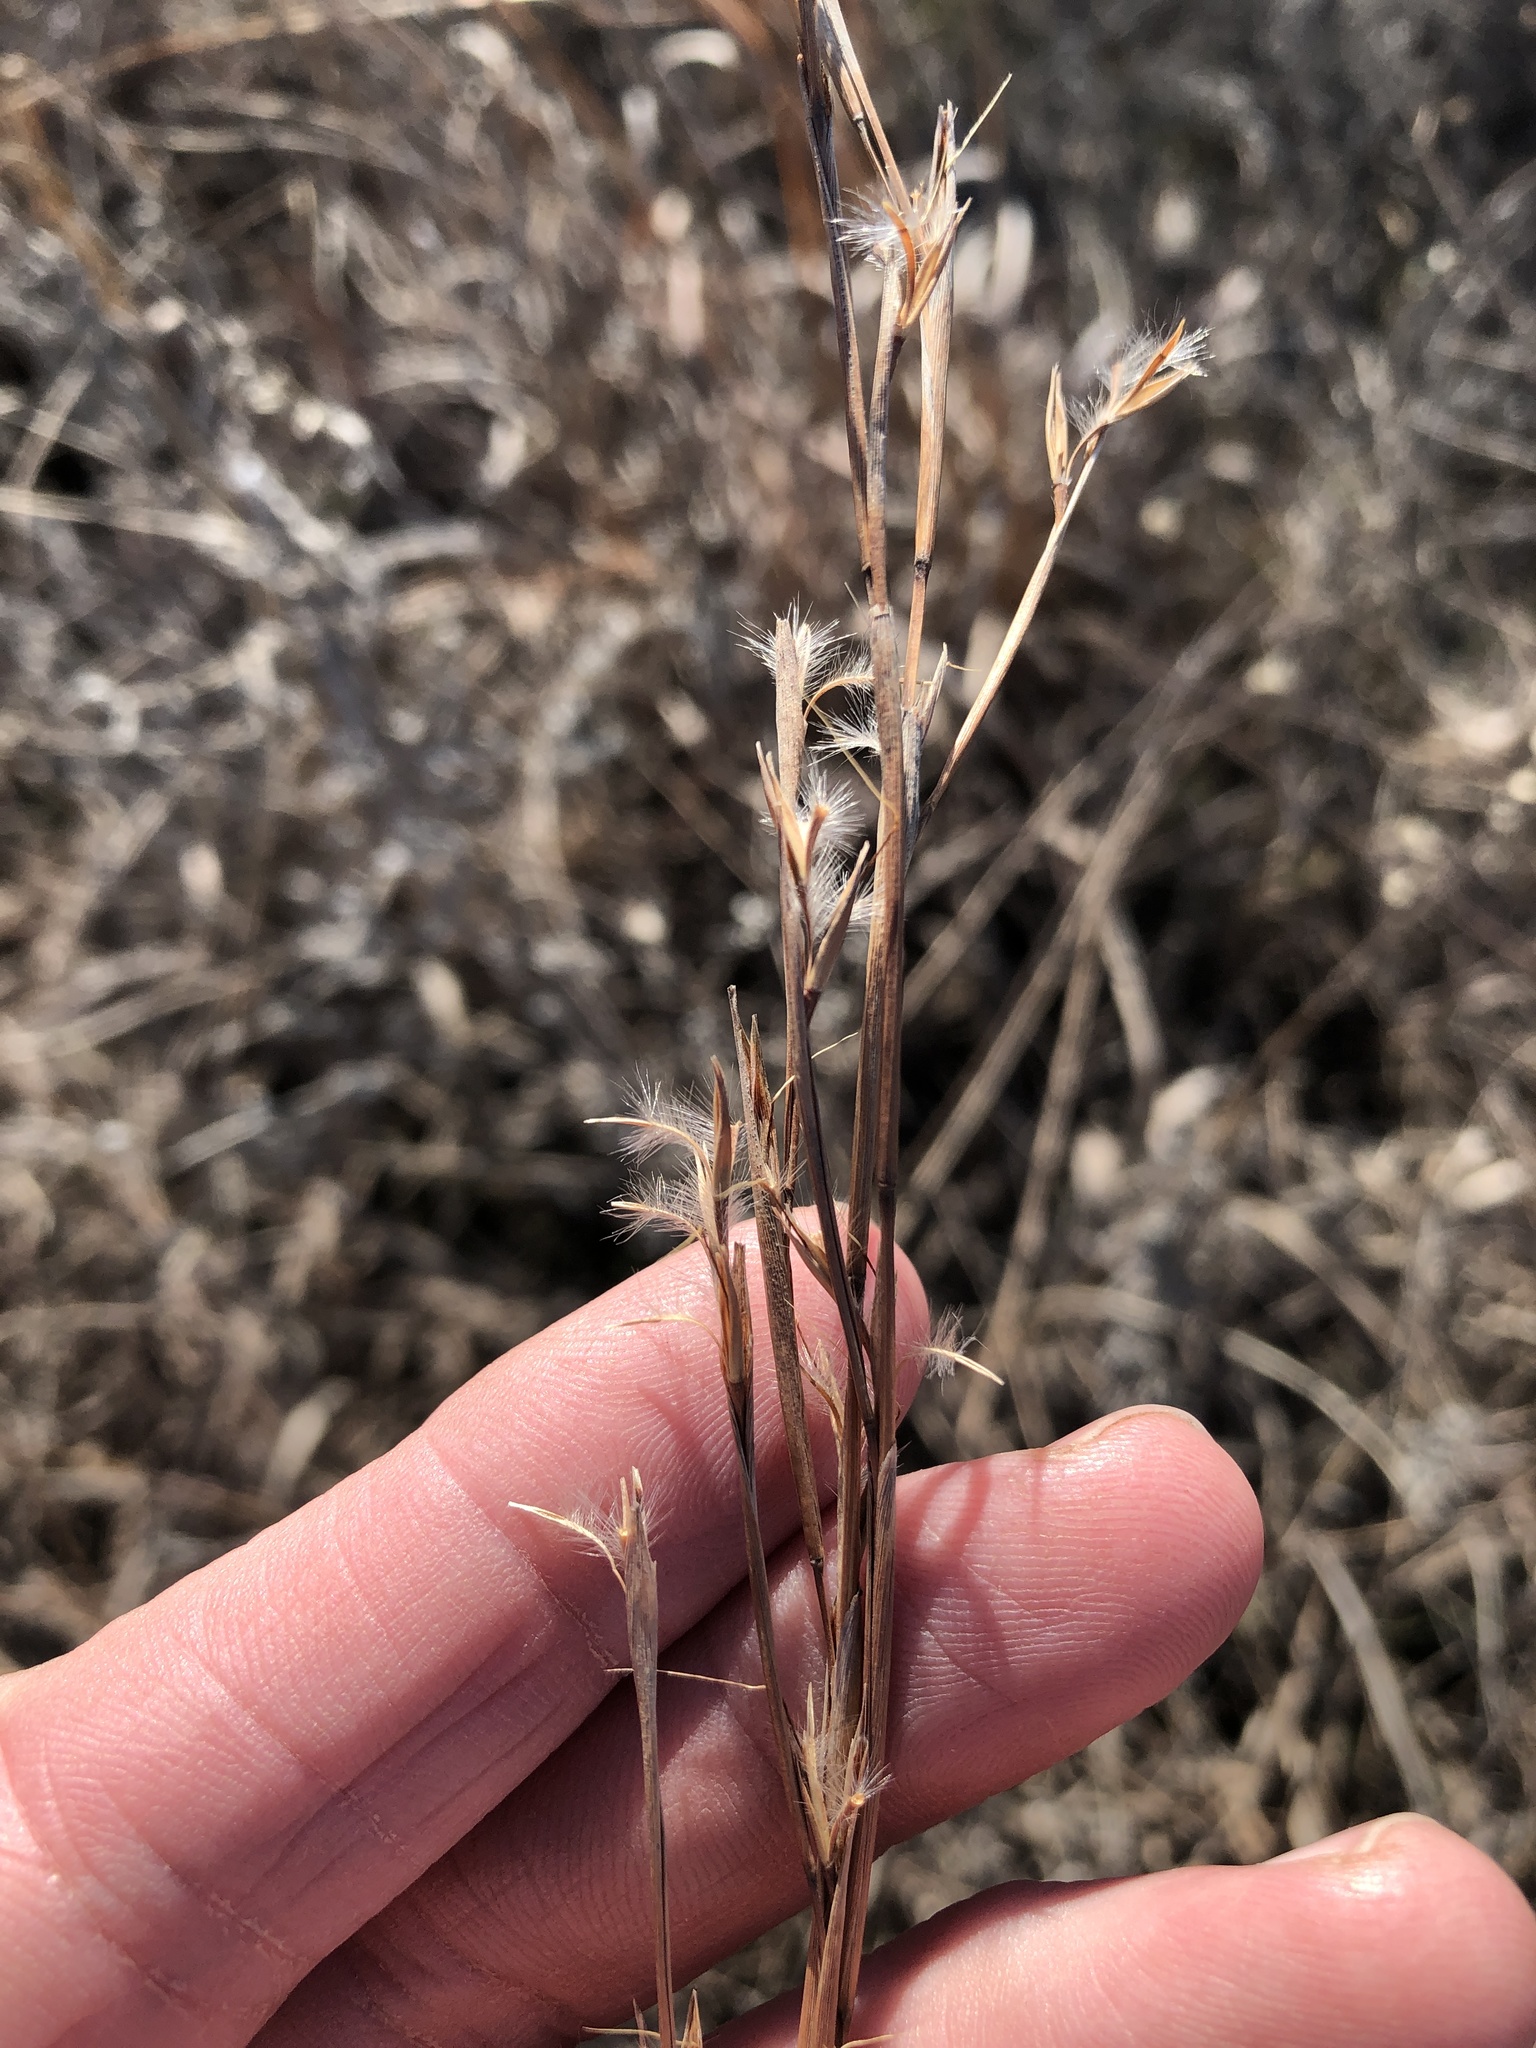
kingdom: Plantae
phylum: Tracheophyta
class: Liliopsida
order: Poales
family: Poaceae
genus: Schizachyrium
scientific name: Schizachyrium scoparium
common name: Little bluestem
